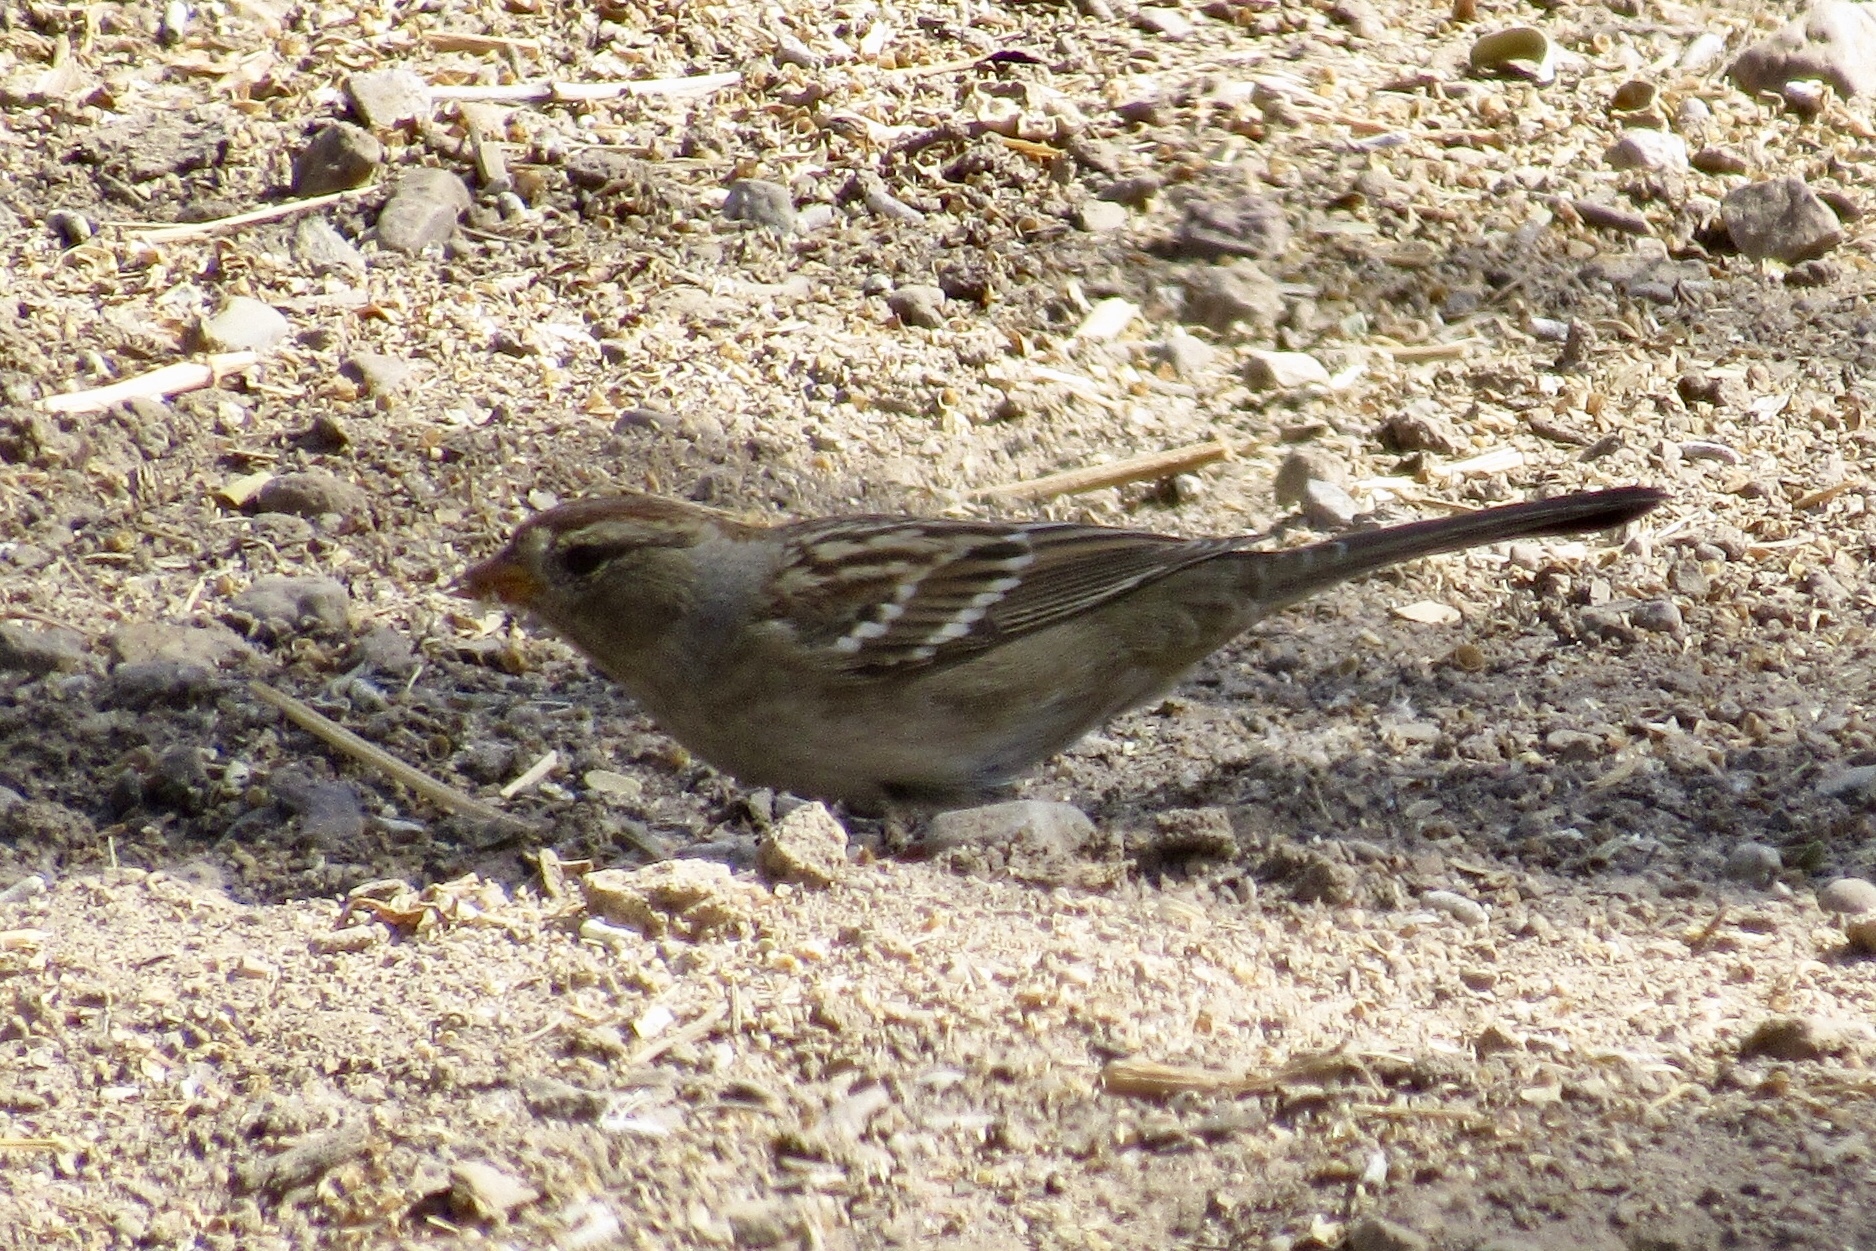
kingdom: Animalia
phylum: Chordata
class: Aves
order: Passeriformes
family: Passerellidae
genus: Zonotrichia
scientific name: Zonotrichia leucophrys
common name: White-crowned sparrow
